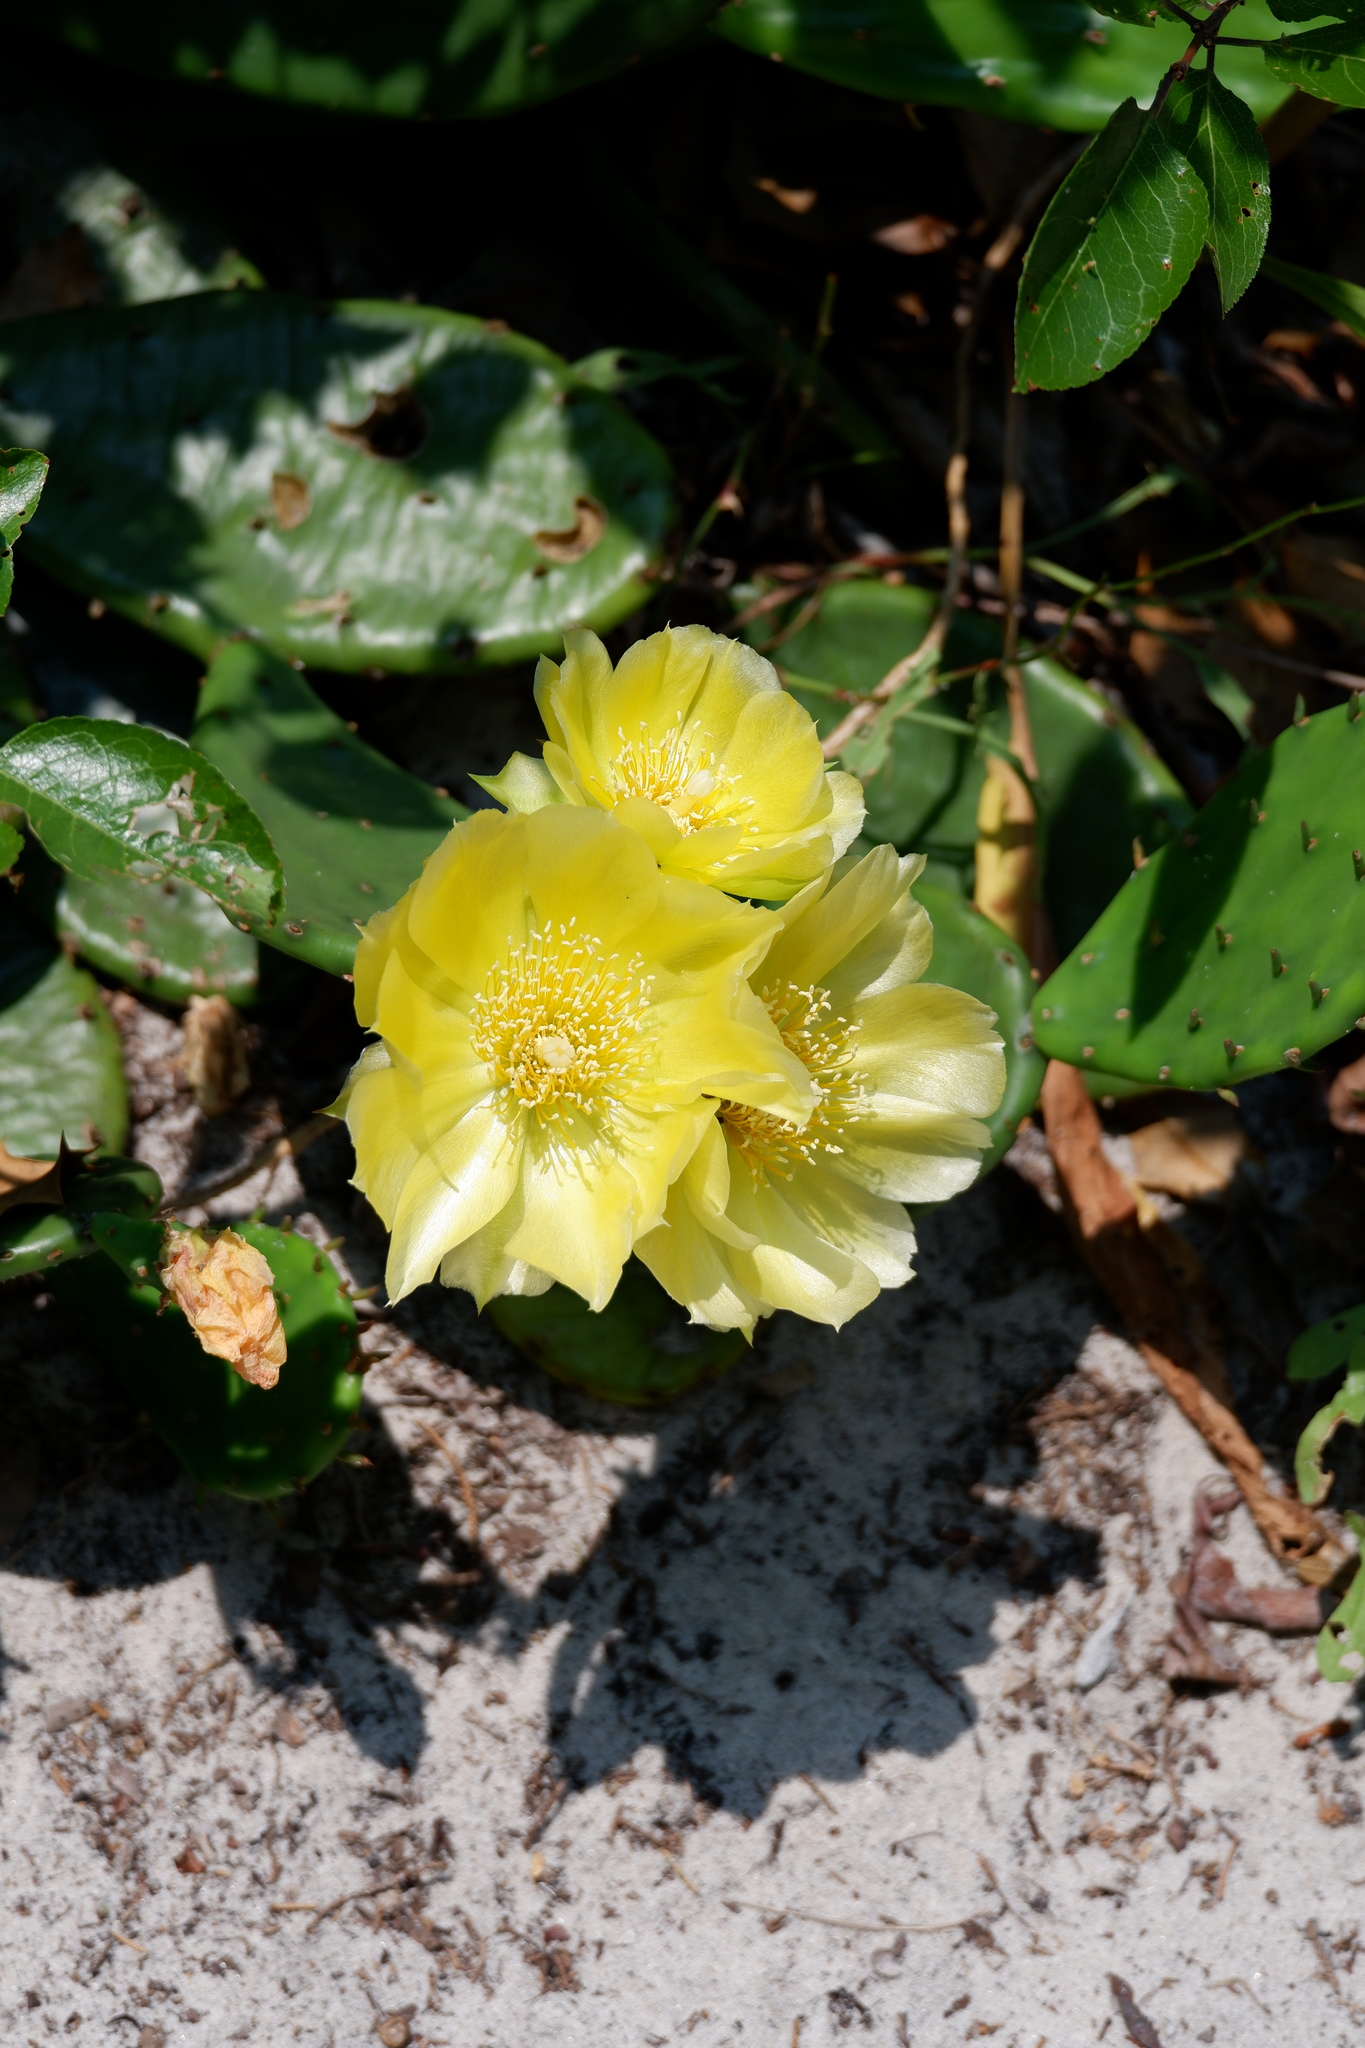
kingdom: Plantae
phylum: Tracheophyta
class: Magnoliopsida
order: Caryophyllales
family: Cactaceae
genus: Opuntia
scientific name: Opuntia humifusa
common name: Eastern prickly-pear
